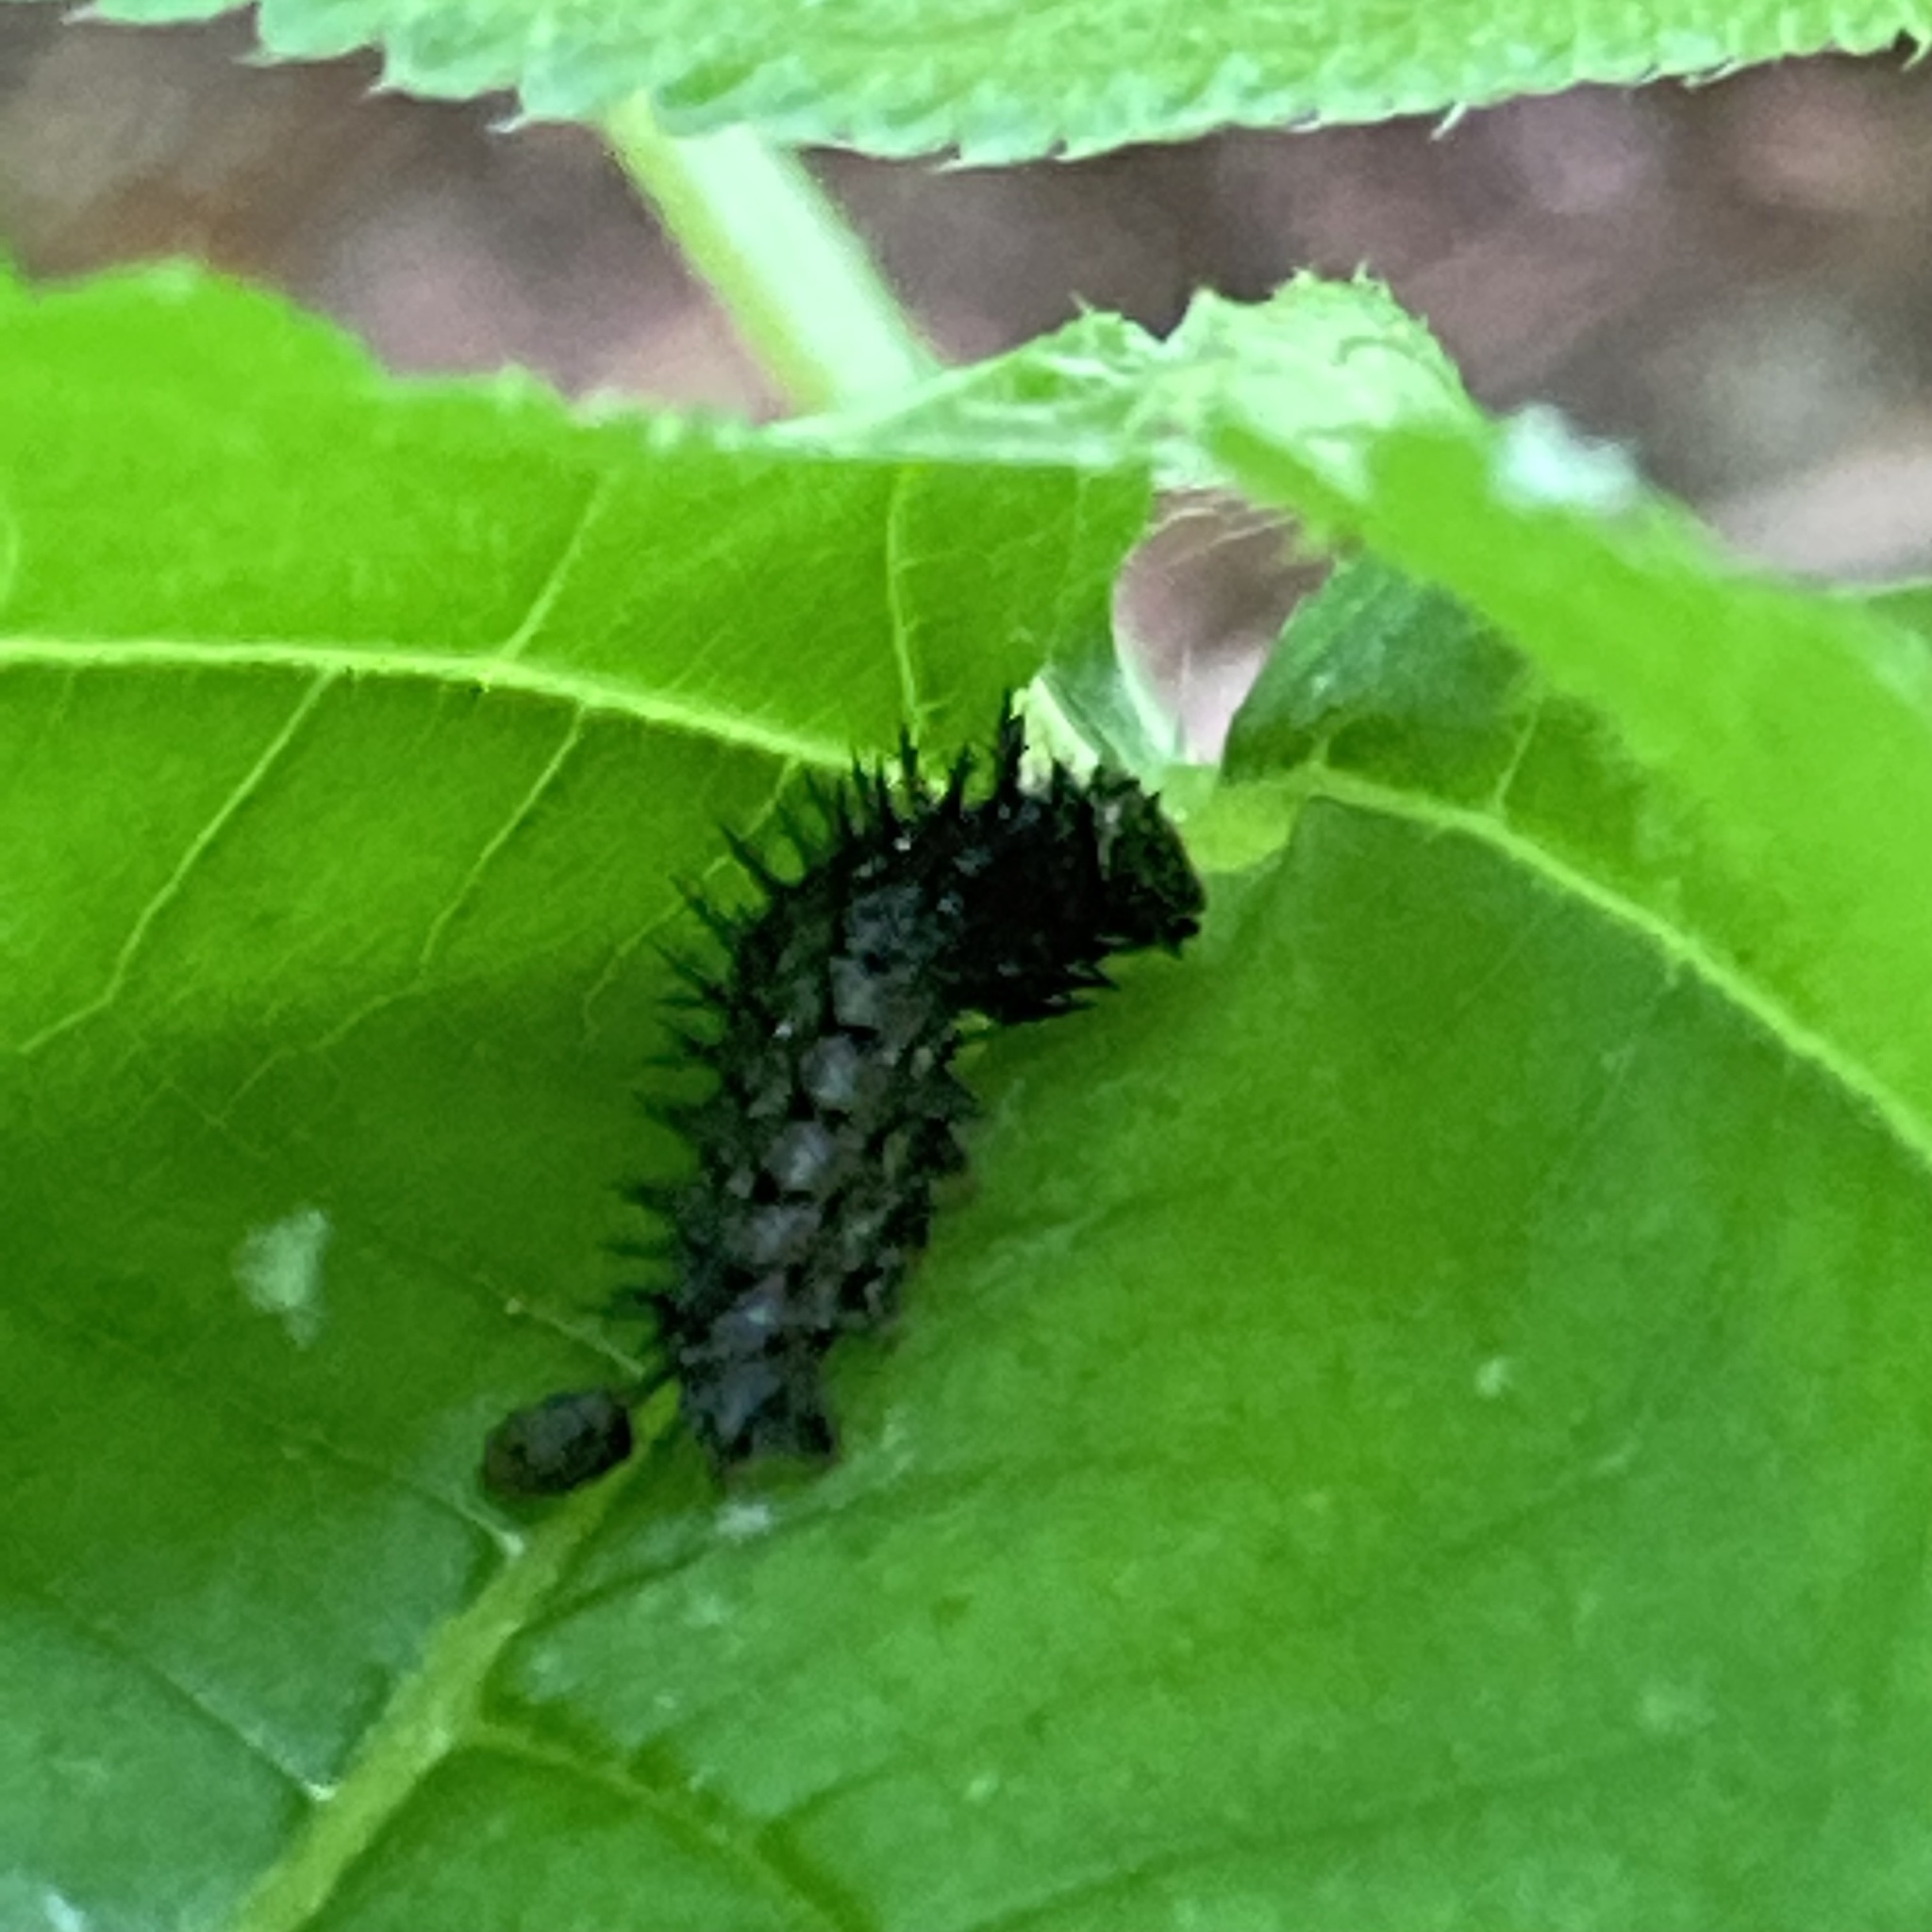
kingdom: Animalia
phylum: Arthropoda
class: Insecta
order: Lepidoptera
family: Nymphalidae
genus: Vanessa
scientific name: Vanessa atalanta
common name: Red admiral
